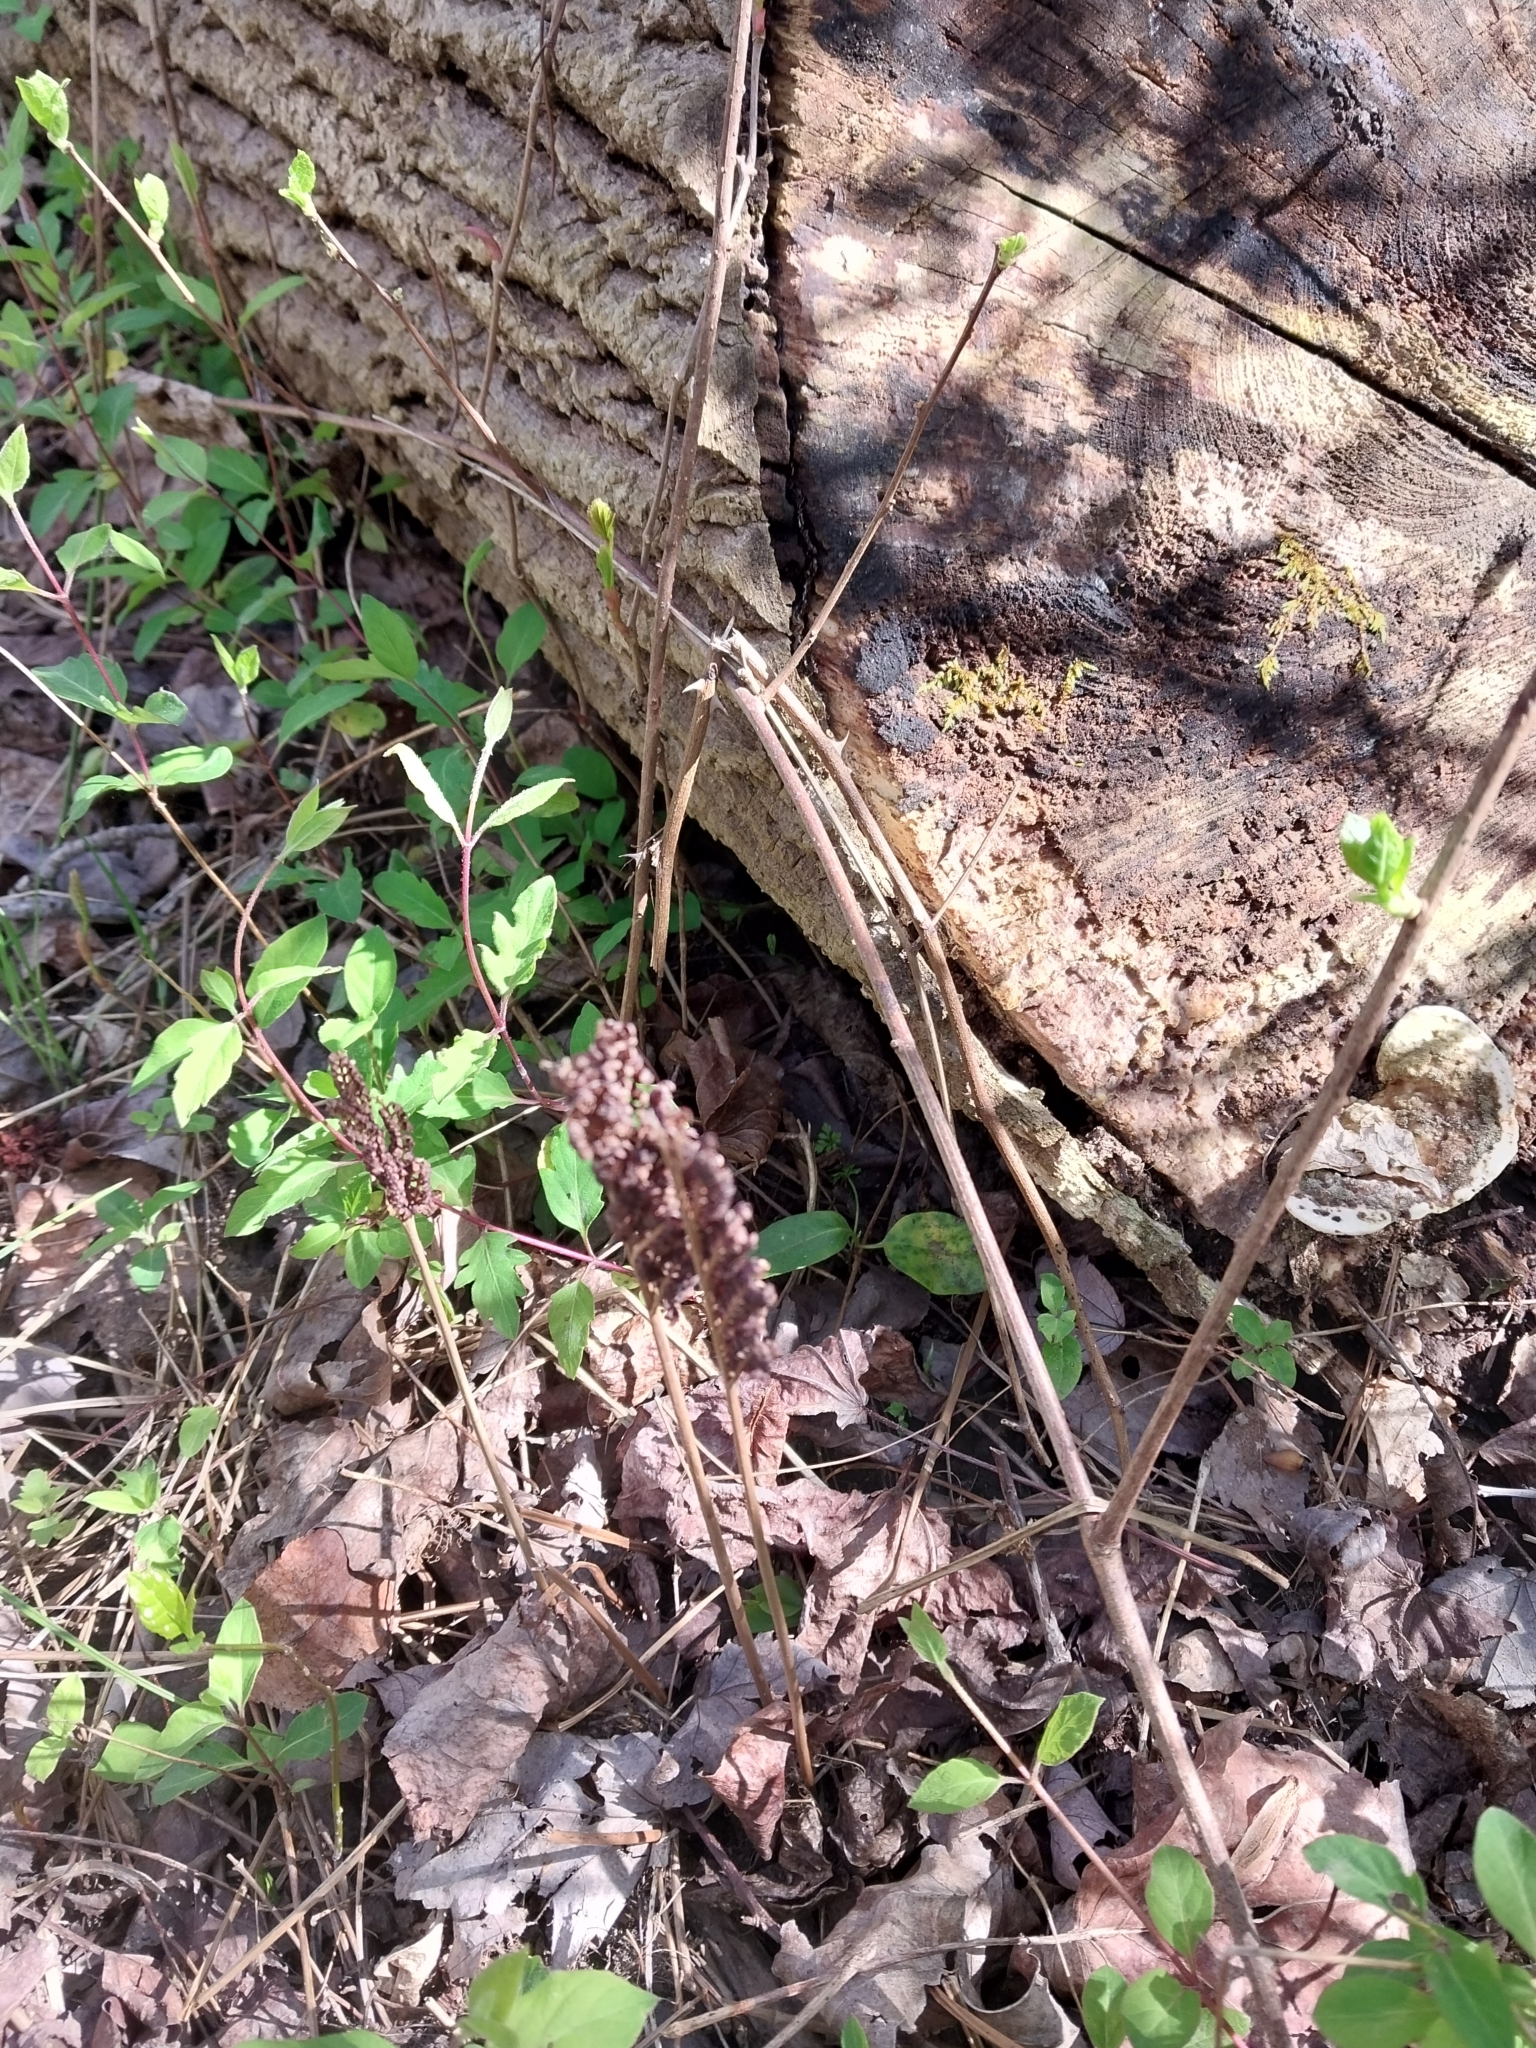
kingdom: Plantae
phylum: Tracheophyta
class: Polypodiopsida
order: Polypodiales
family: Onocleaceae
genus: Onoclea
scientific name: Onoclea sensibilis
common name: Sensitive fern
